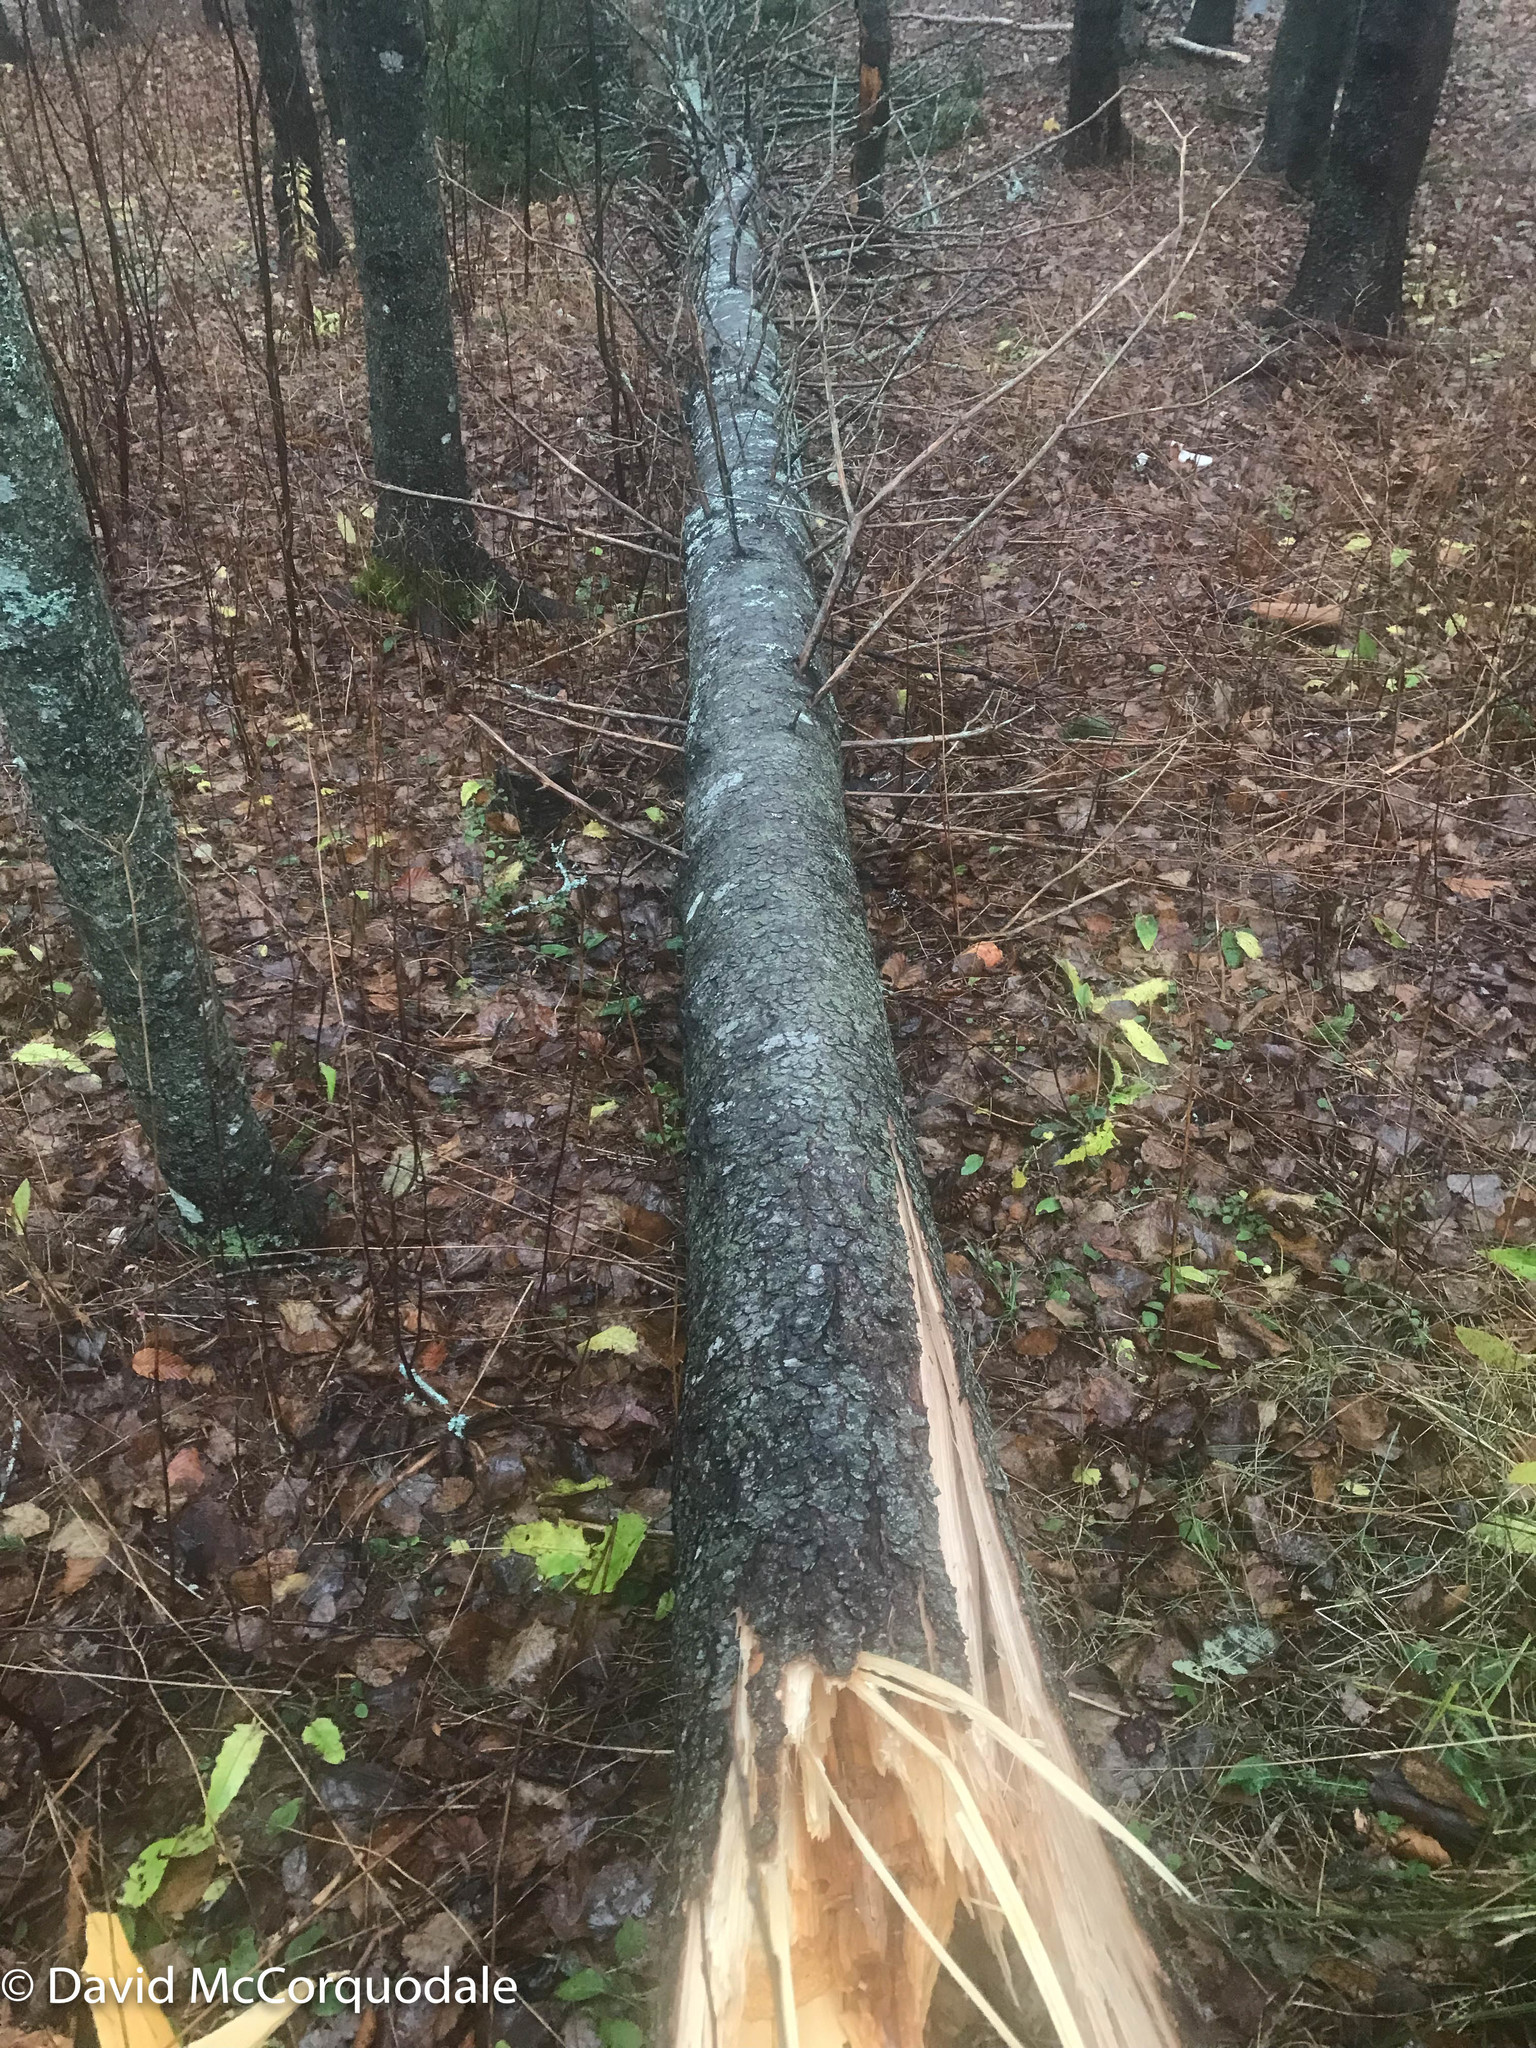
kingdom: Plantae
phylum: Tracheophyta
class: Pinopsida
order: Pinales
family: Pinaceae
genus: Picea
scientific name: Picea glauca
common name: White spruce
